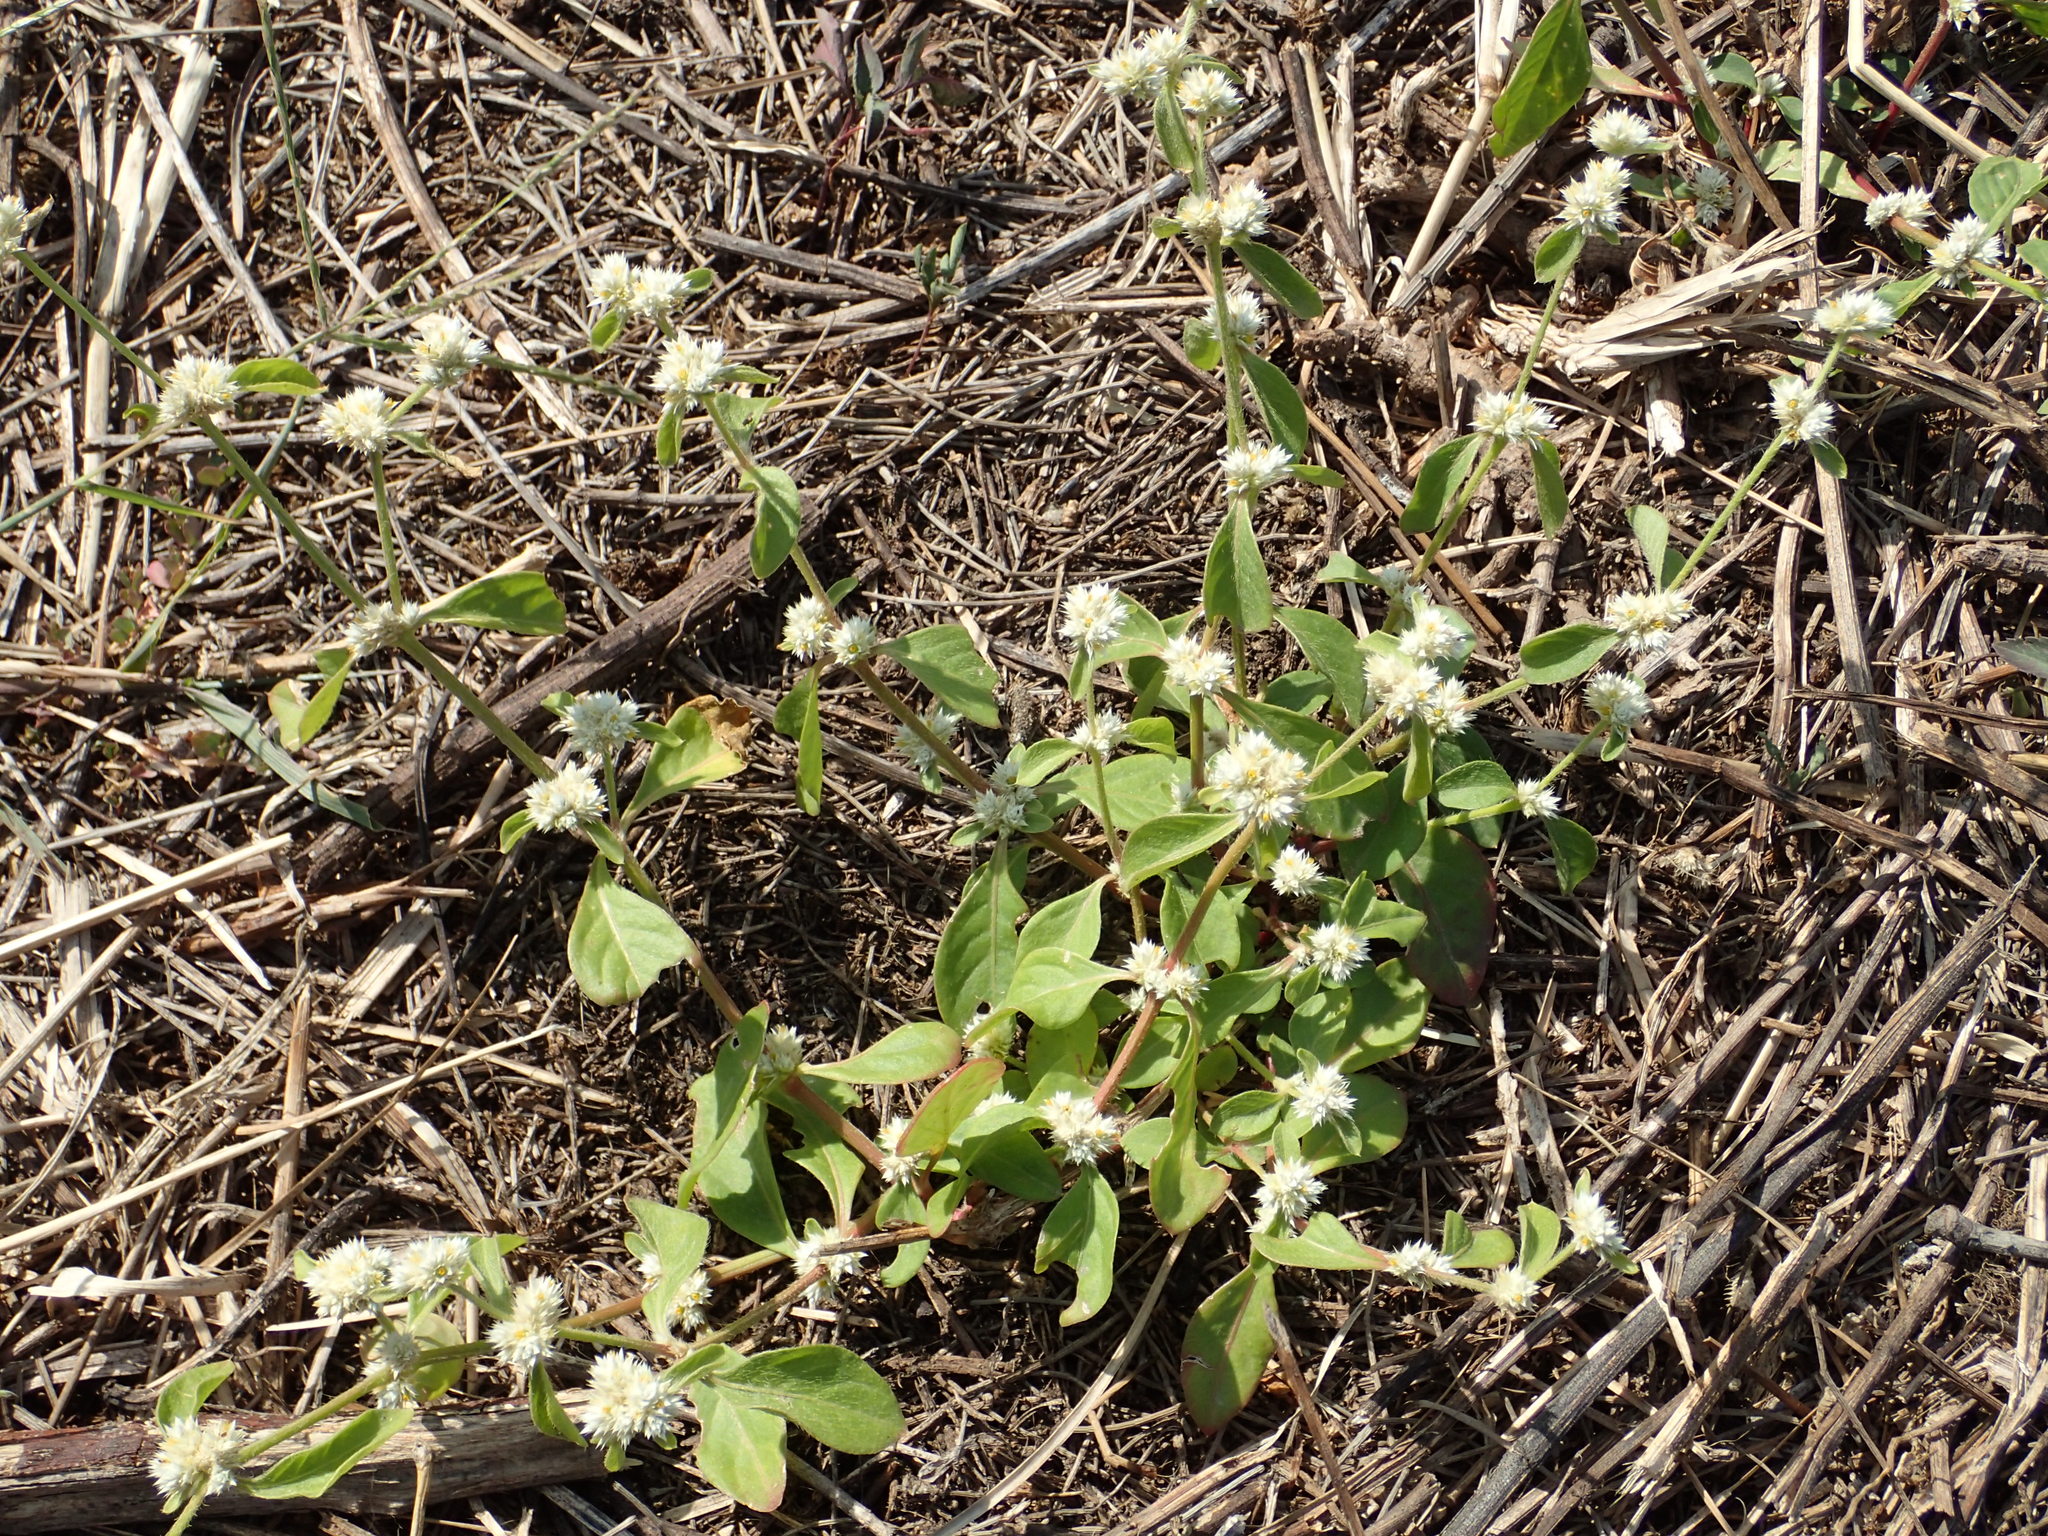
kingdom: Plantae
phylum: Tracheophyta
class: Magnoliopsida
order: Caryophyllales
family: Amaranthaceae
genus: Alternanthera
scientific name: Alternanthera bettzickiana
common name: Calico-plant
